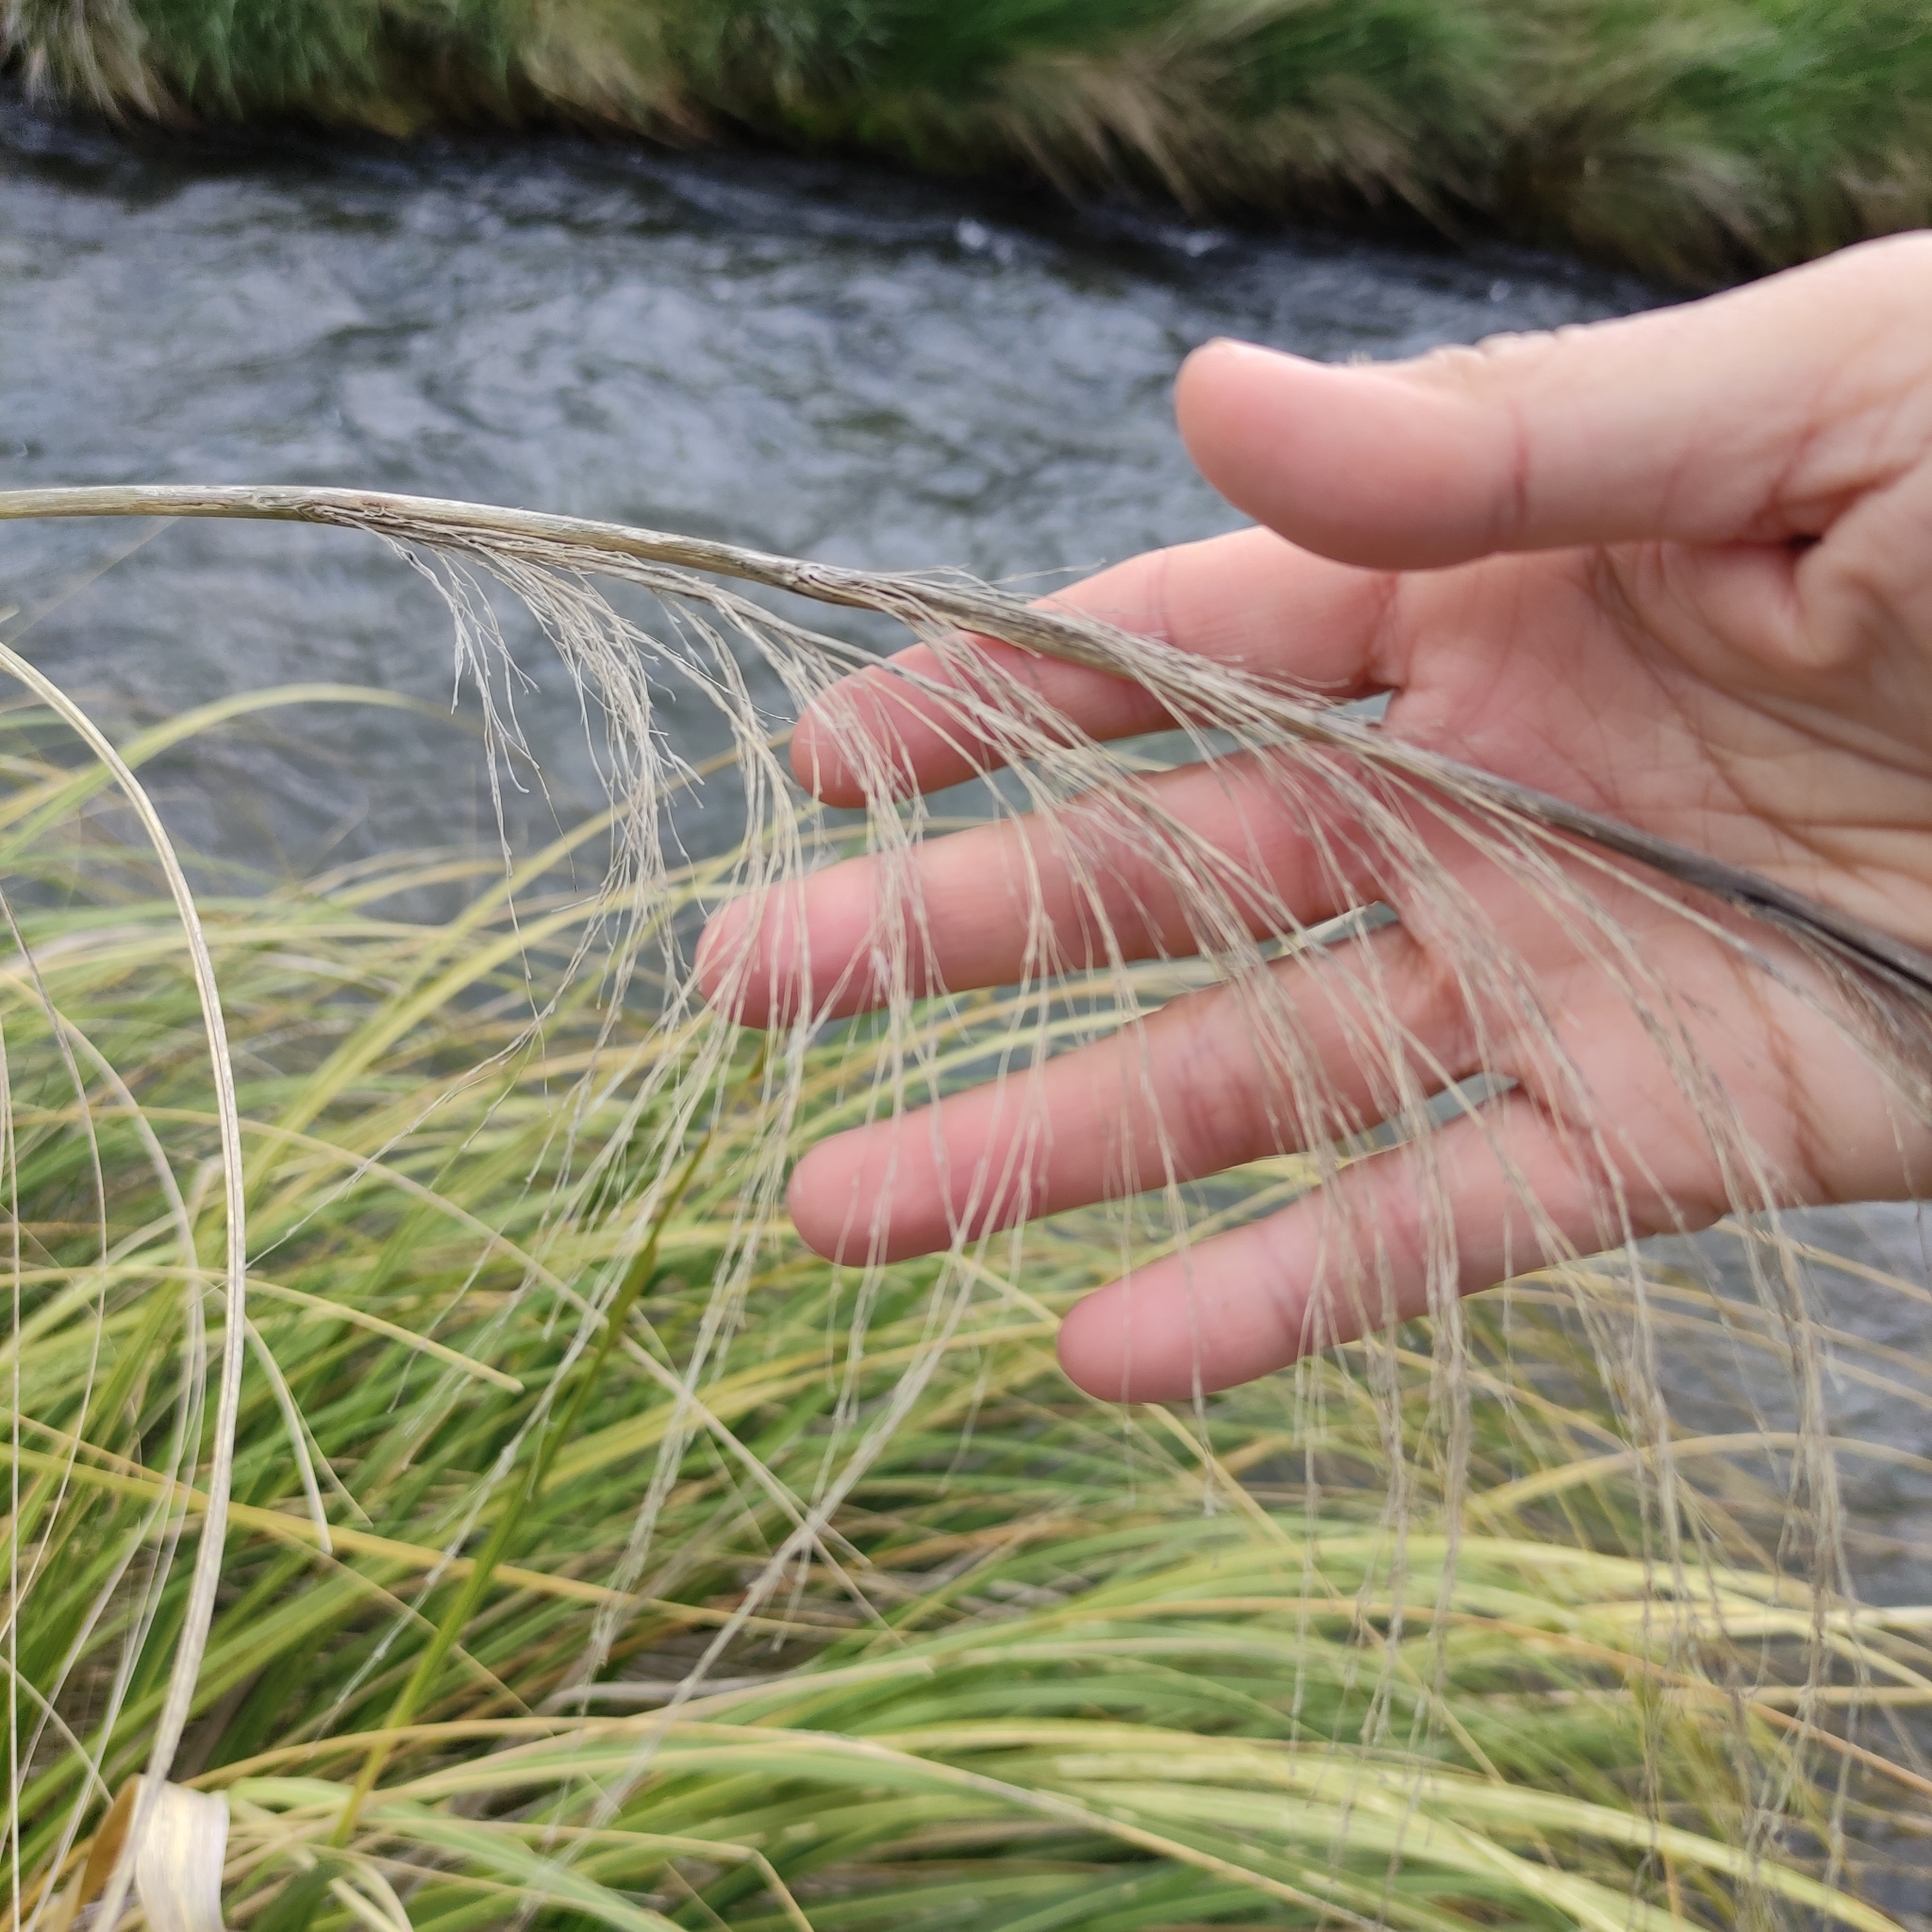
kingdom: Plantae
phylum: Tracheophyta
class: Liliopsida
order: Poales
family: Poaceae
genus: Austroderia
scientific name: Austroderia richardii
